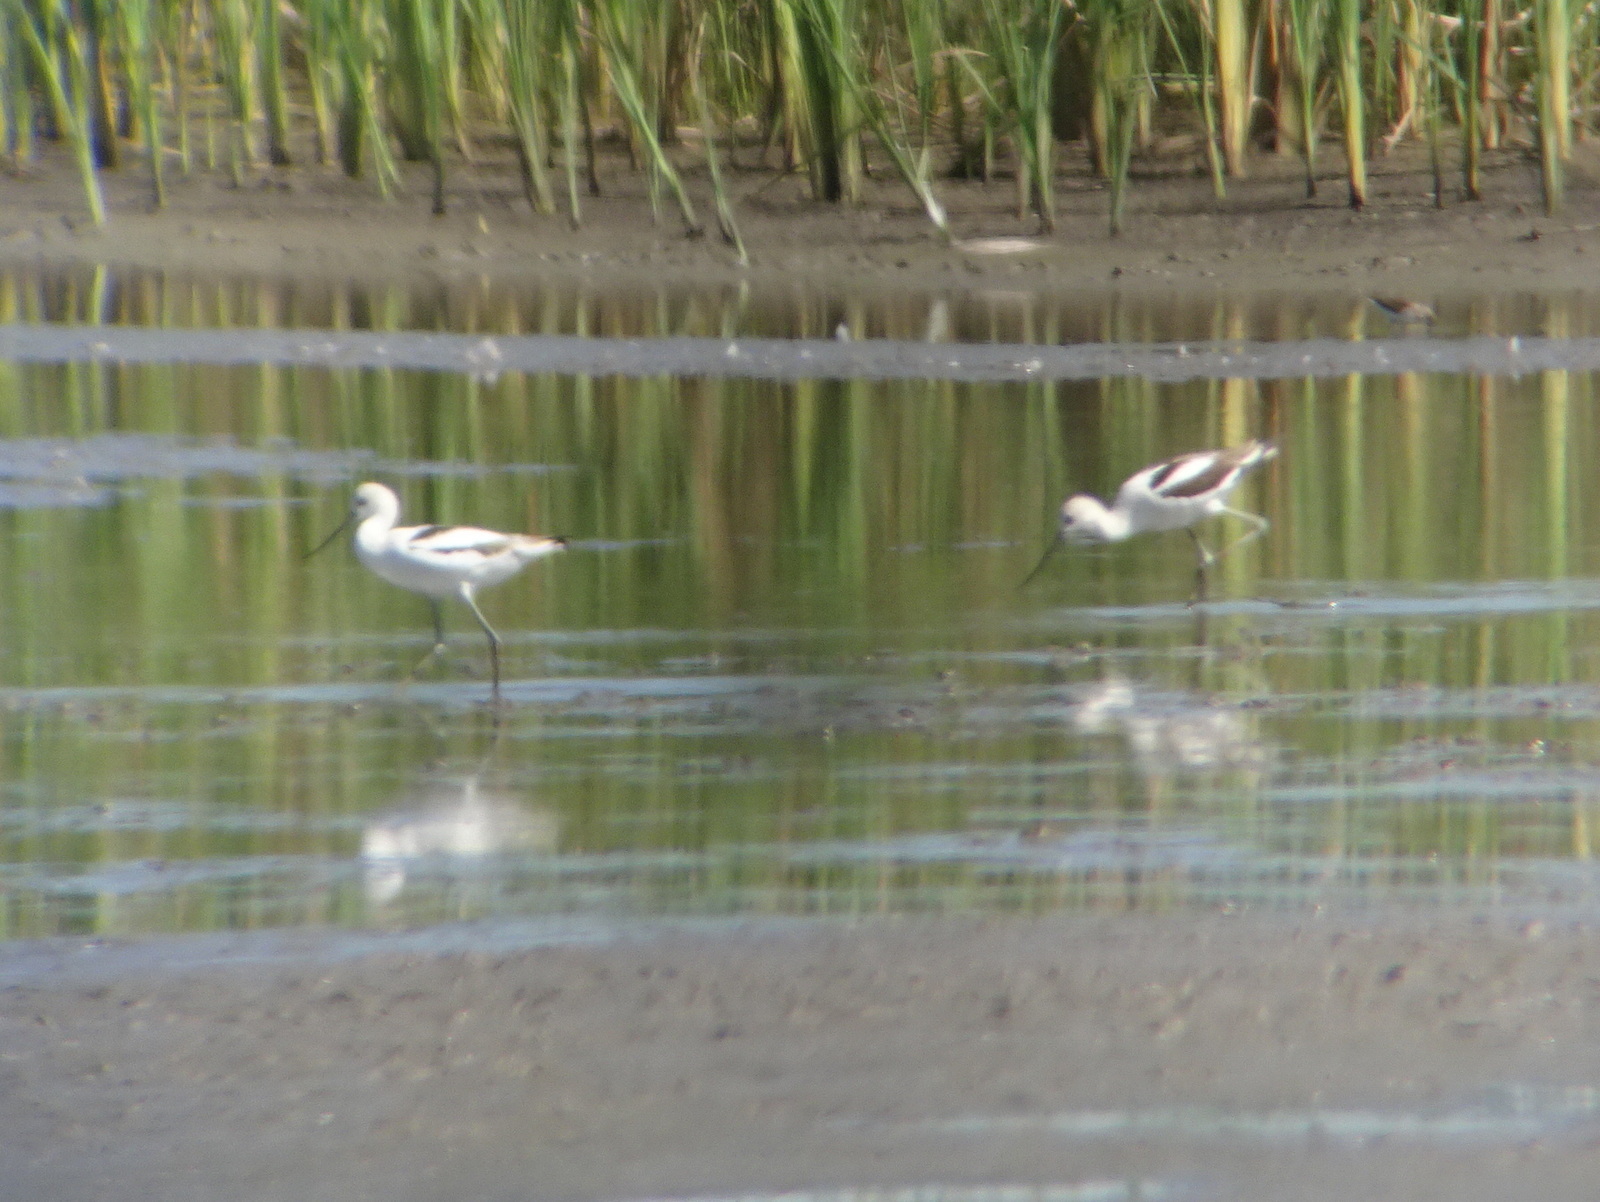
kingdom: Animalia
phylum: Chordata
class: Aves
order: Charadriiformes
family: Recurvirostridae
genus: Recurvirostra
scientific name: Recurvirostra americana
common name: American avocet
